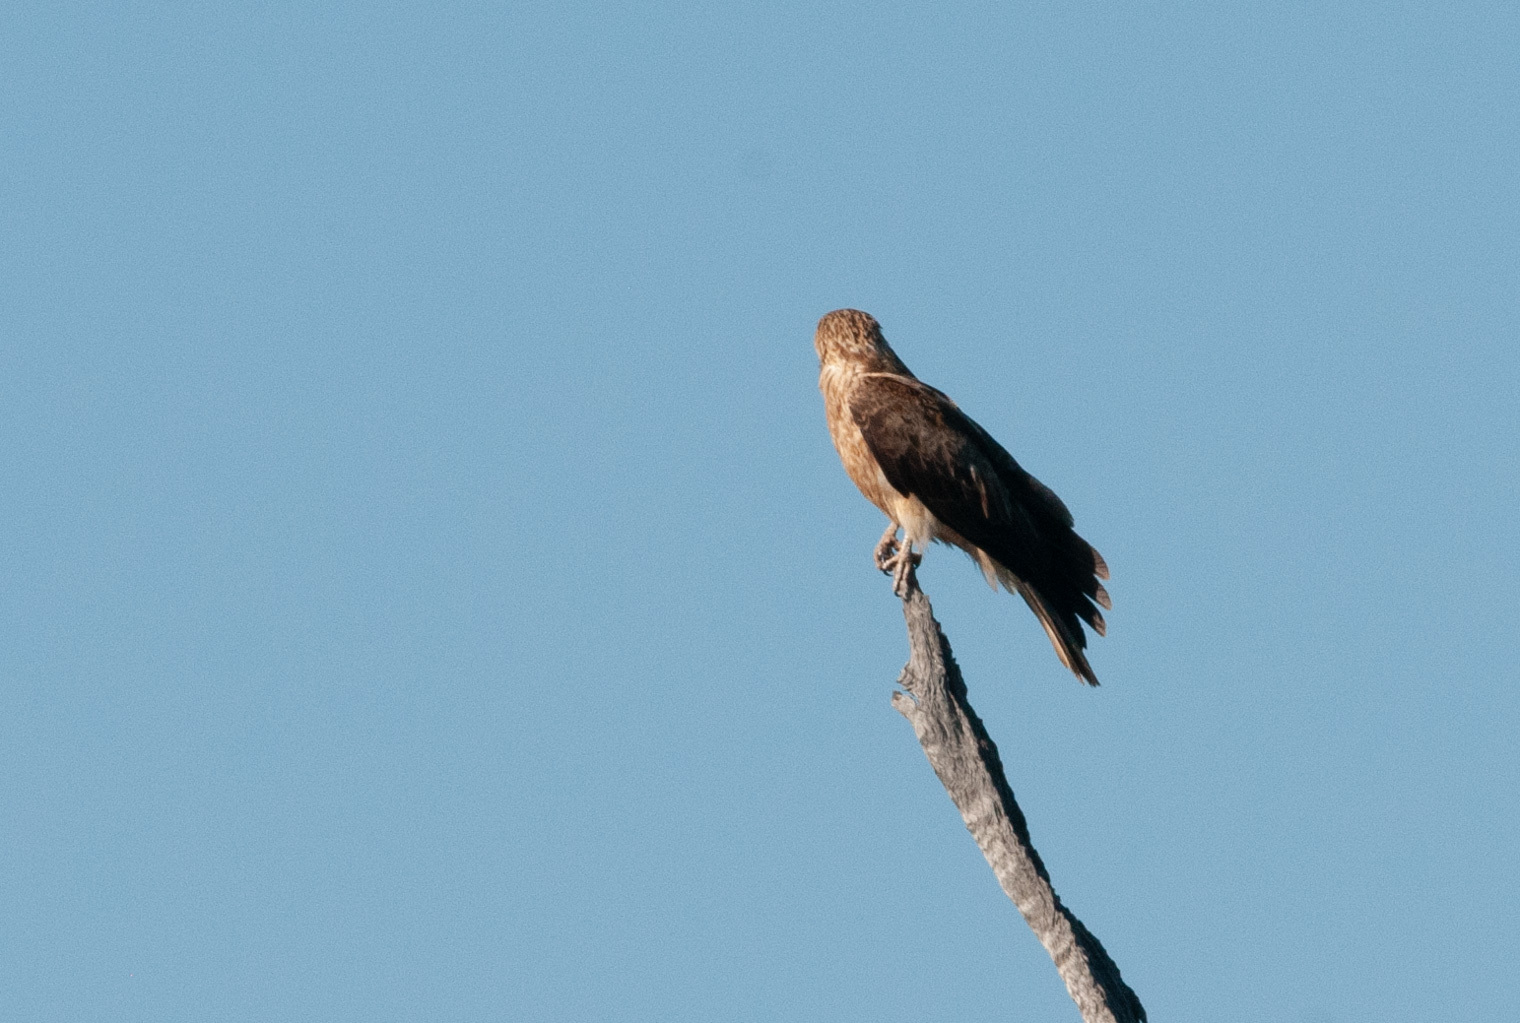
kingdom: Animalia
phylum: Chordata
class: Aves
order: Accipitriformes
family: Accipitridae
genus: Haliastur
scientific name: Haliastur sphenurus
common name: Whistling kite
